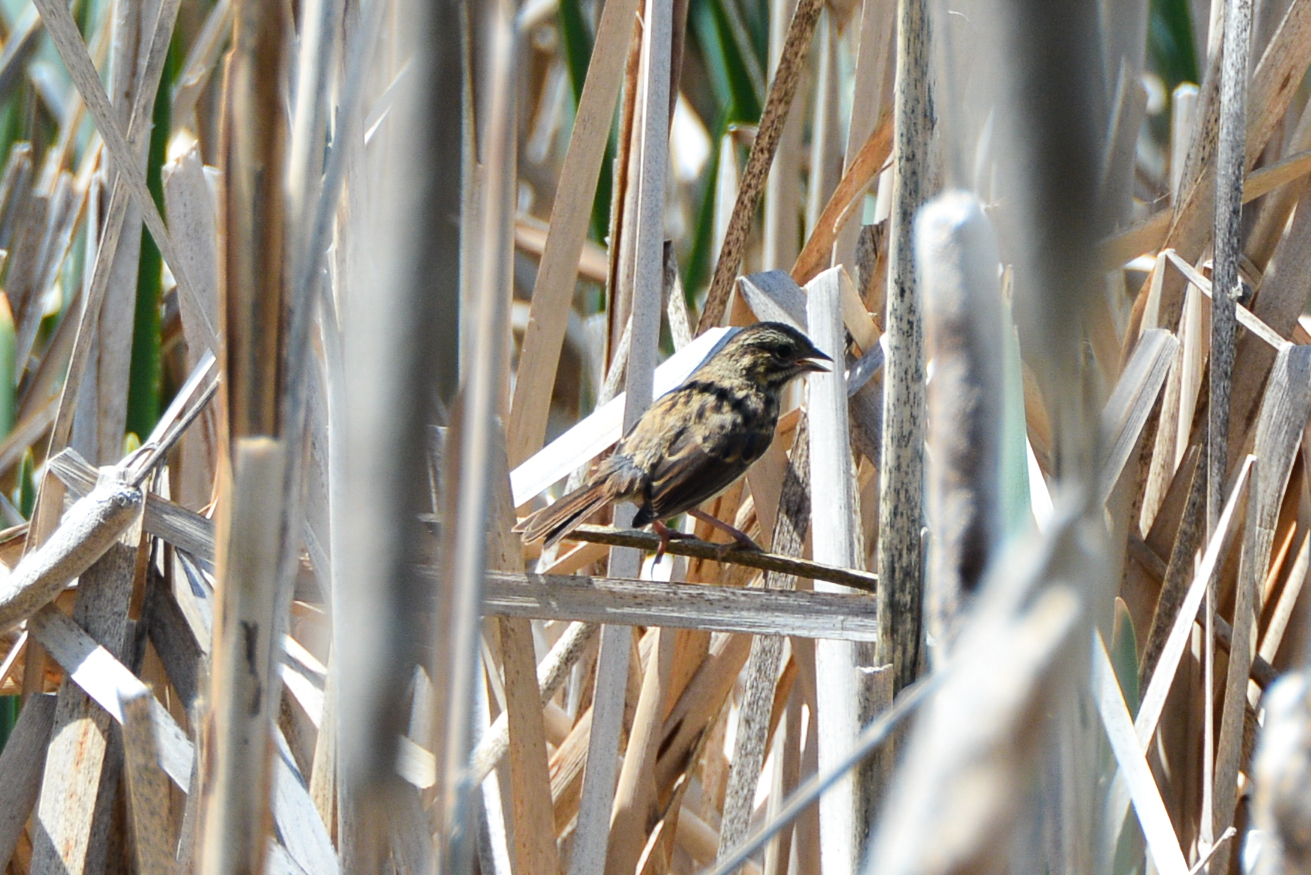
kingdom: Animalia
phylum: Chordata
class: Aves
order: Passeriformes
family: Passerellidae
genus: Melospiza
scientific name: Melospiza melodia
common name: Song sparrow
